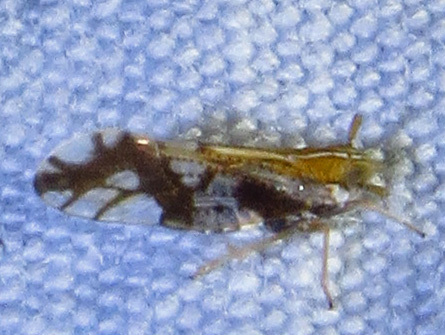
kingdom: Animalia
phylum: Arthropoda
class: Insecta
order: Hemiptera
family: Delphacidae
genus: Liburniella
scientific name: Liburniella ornata
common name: Ornate planthopper
